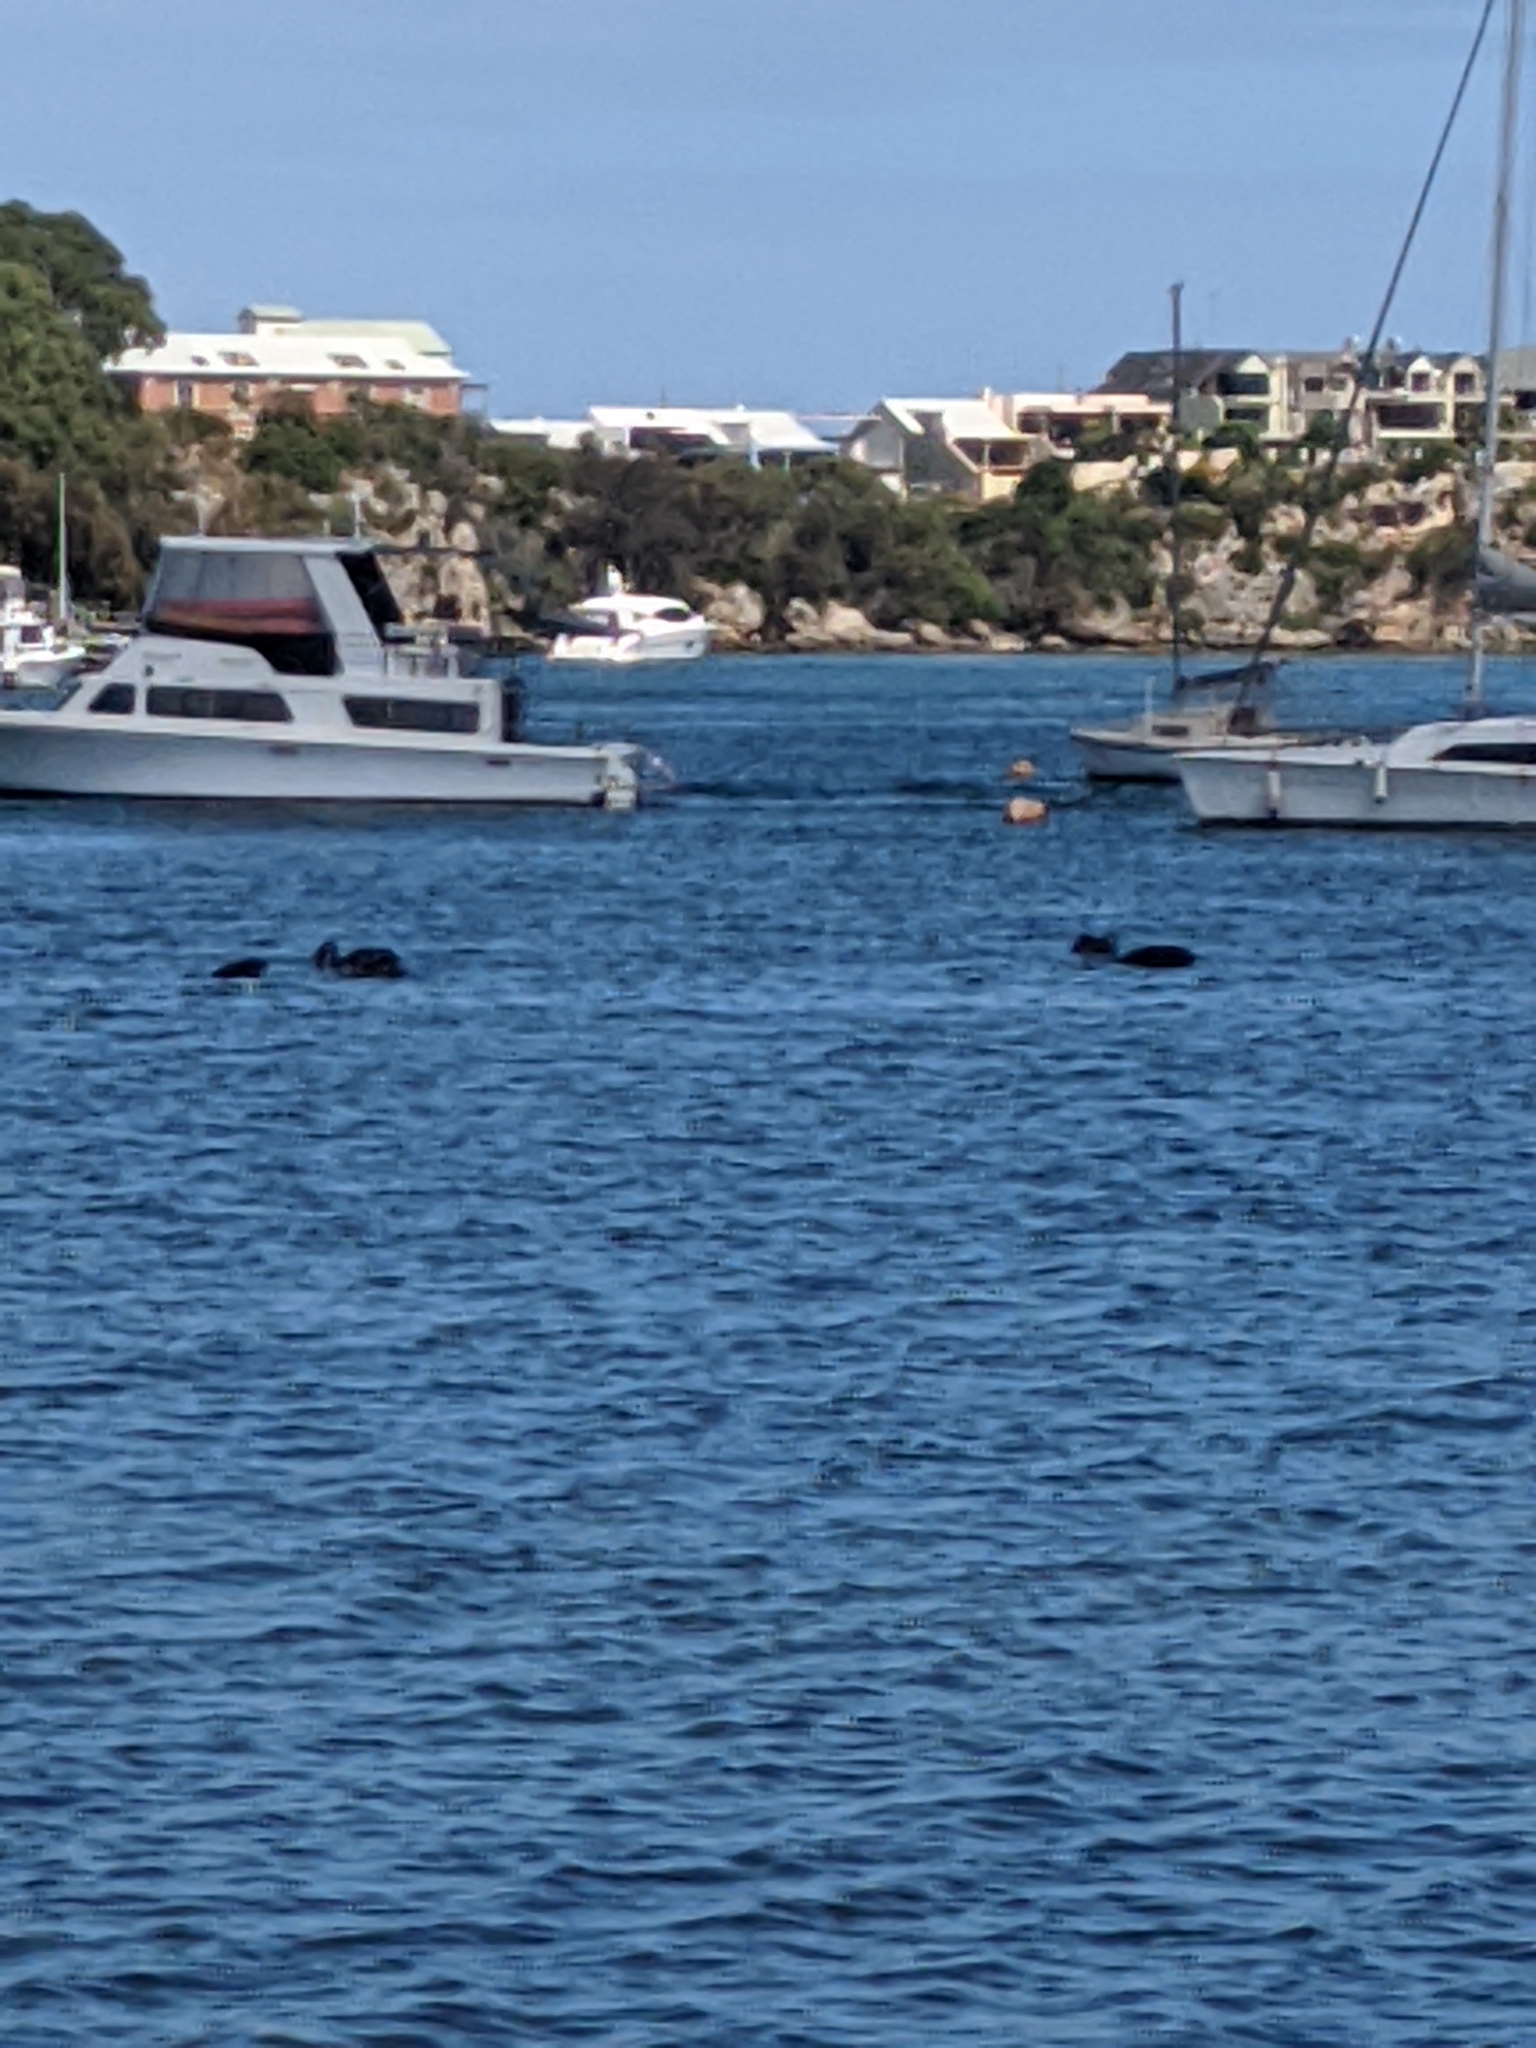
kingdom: Animalia
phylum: Chordata
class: Aves
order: Anseriformes
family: Anatidae
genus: Cygnus
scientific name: Cygnus atratus
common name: Black swan
